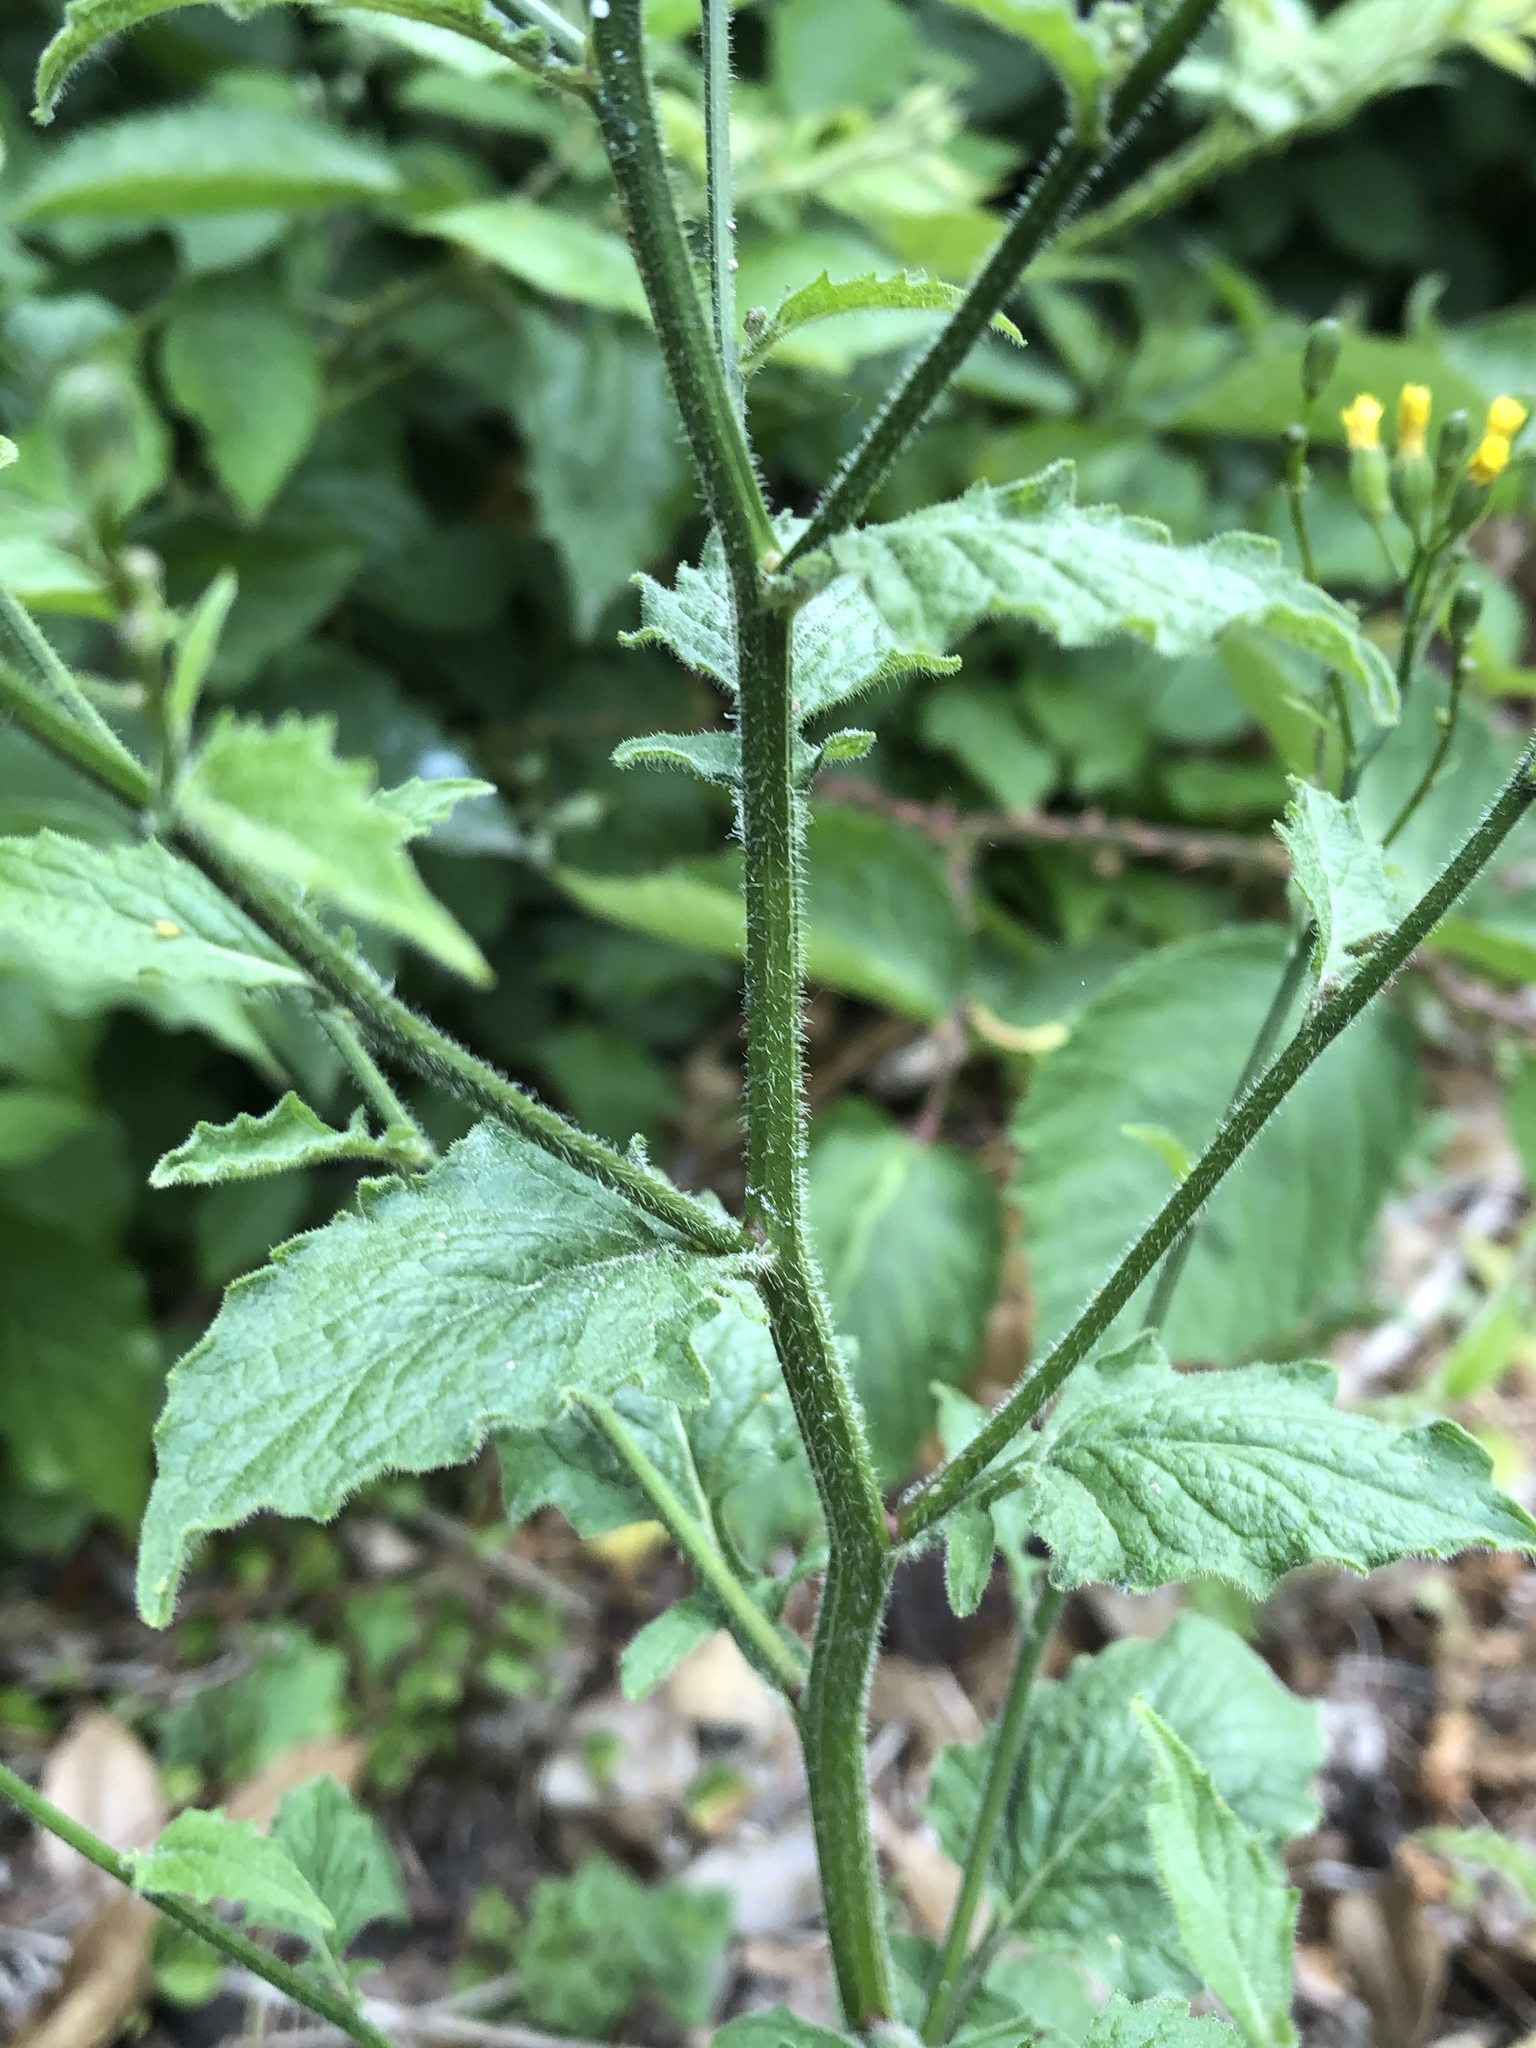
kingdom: Plantae
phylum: Tracheophyta
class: Magnoliopsida
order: Asterales
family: Asteraceae
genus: Lapsana
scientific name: Lapsana communis
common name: Nipplewort
